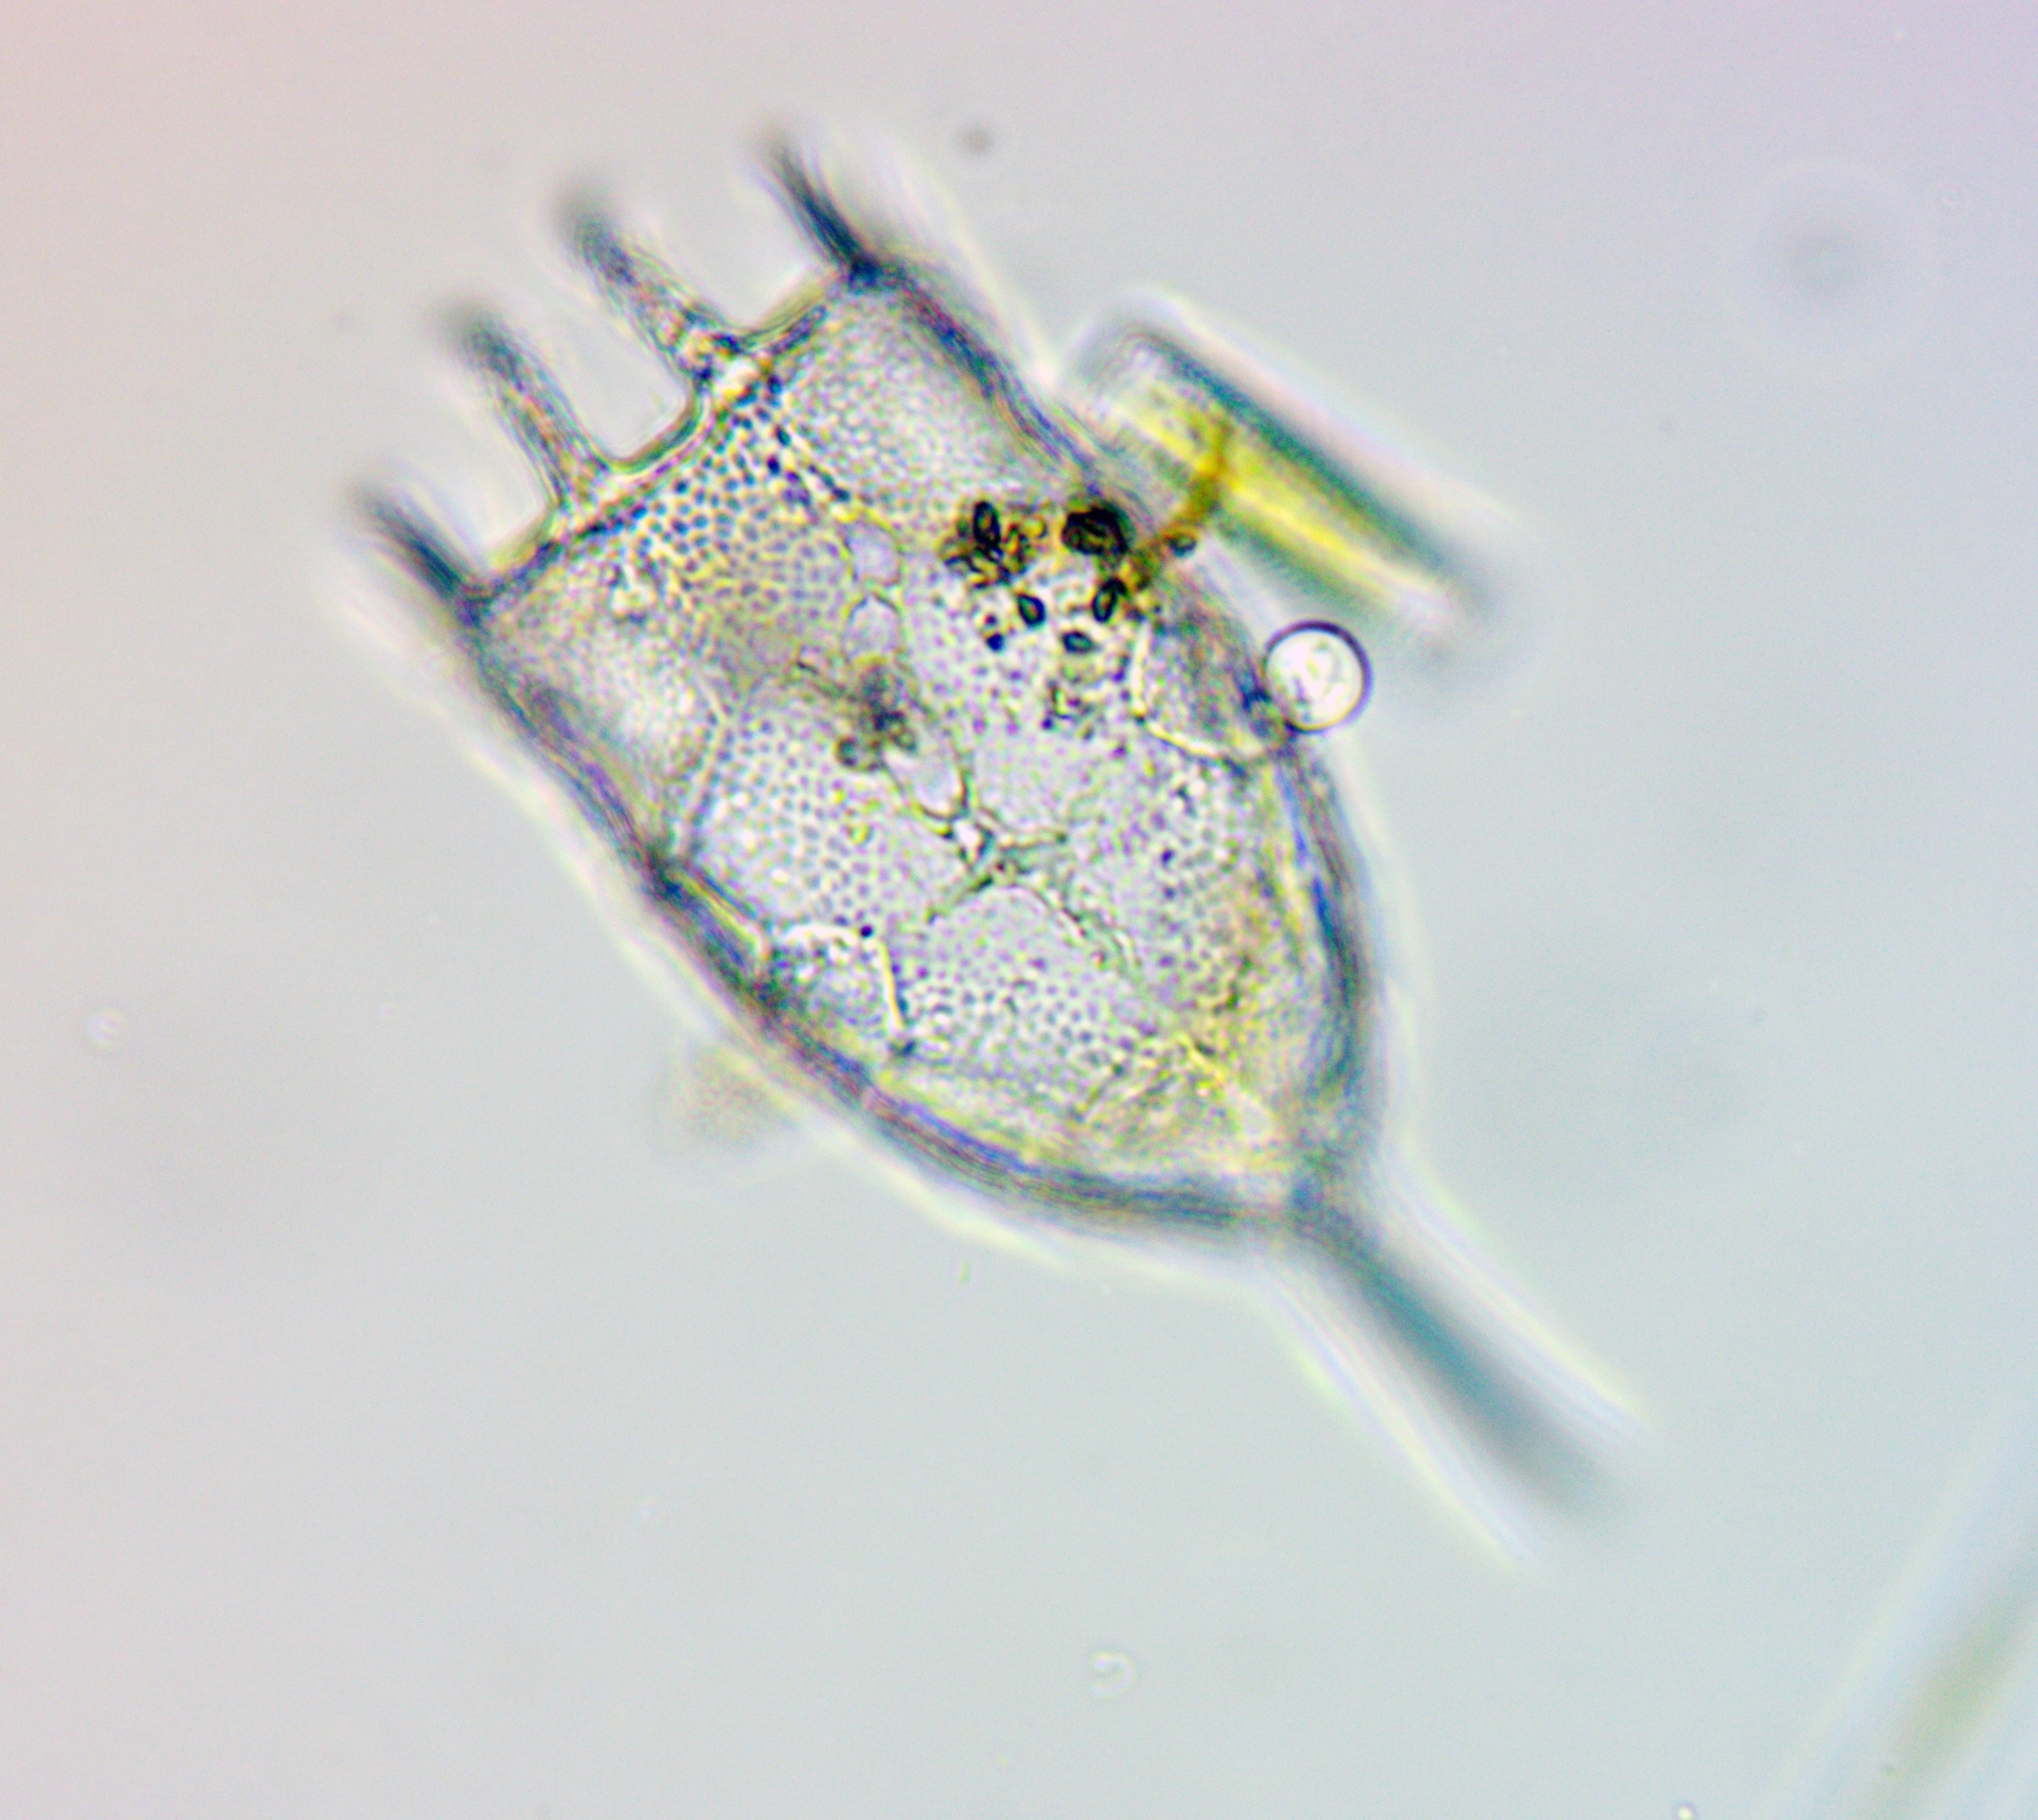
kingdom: Animalia
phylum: Rotifera
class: Eurotatoria
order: Ploima
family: Brachionidae
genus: Keratella
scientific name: Keratella cochlearis
